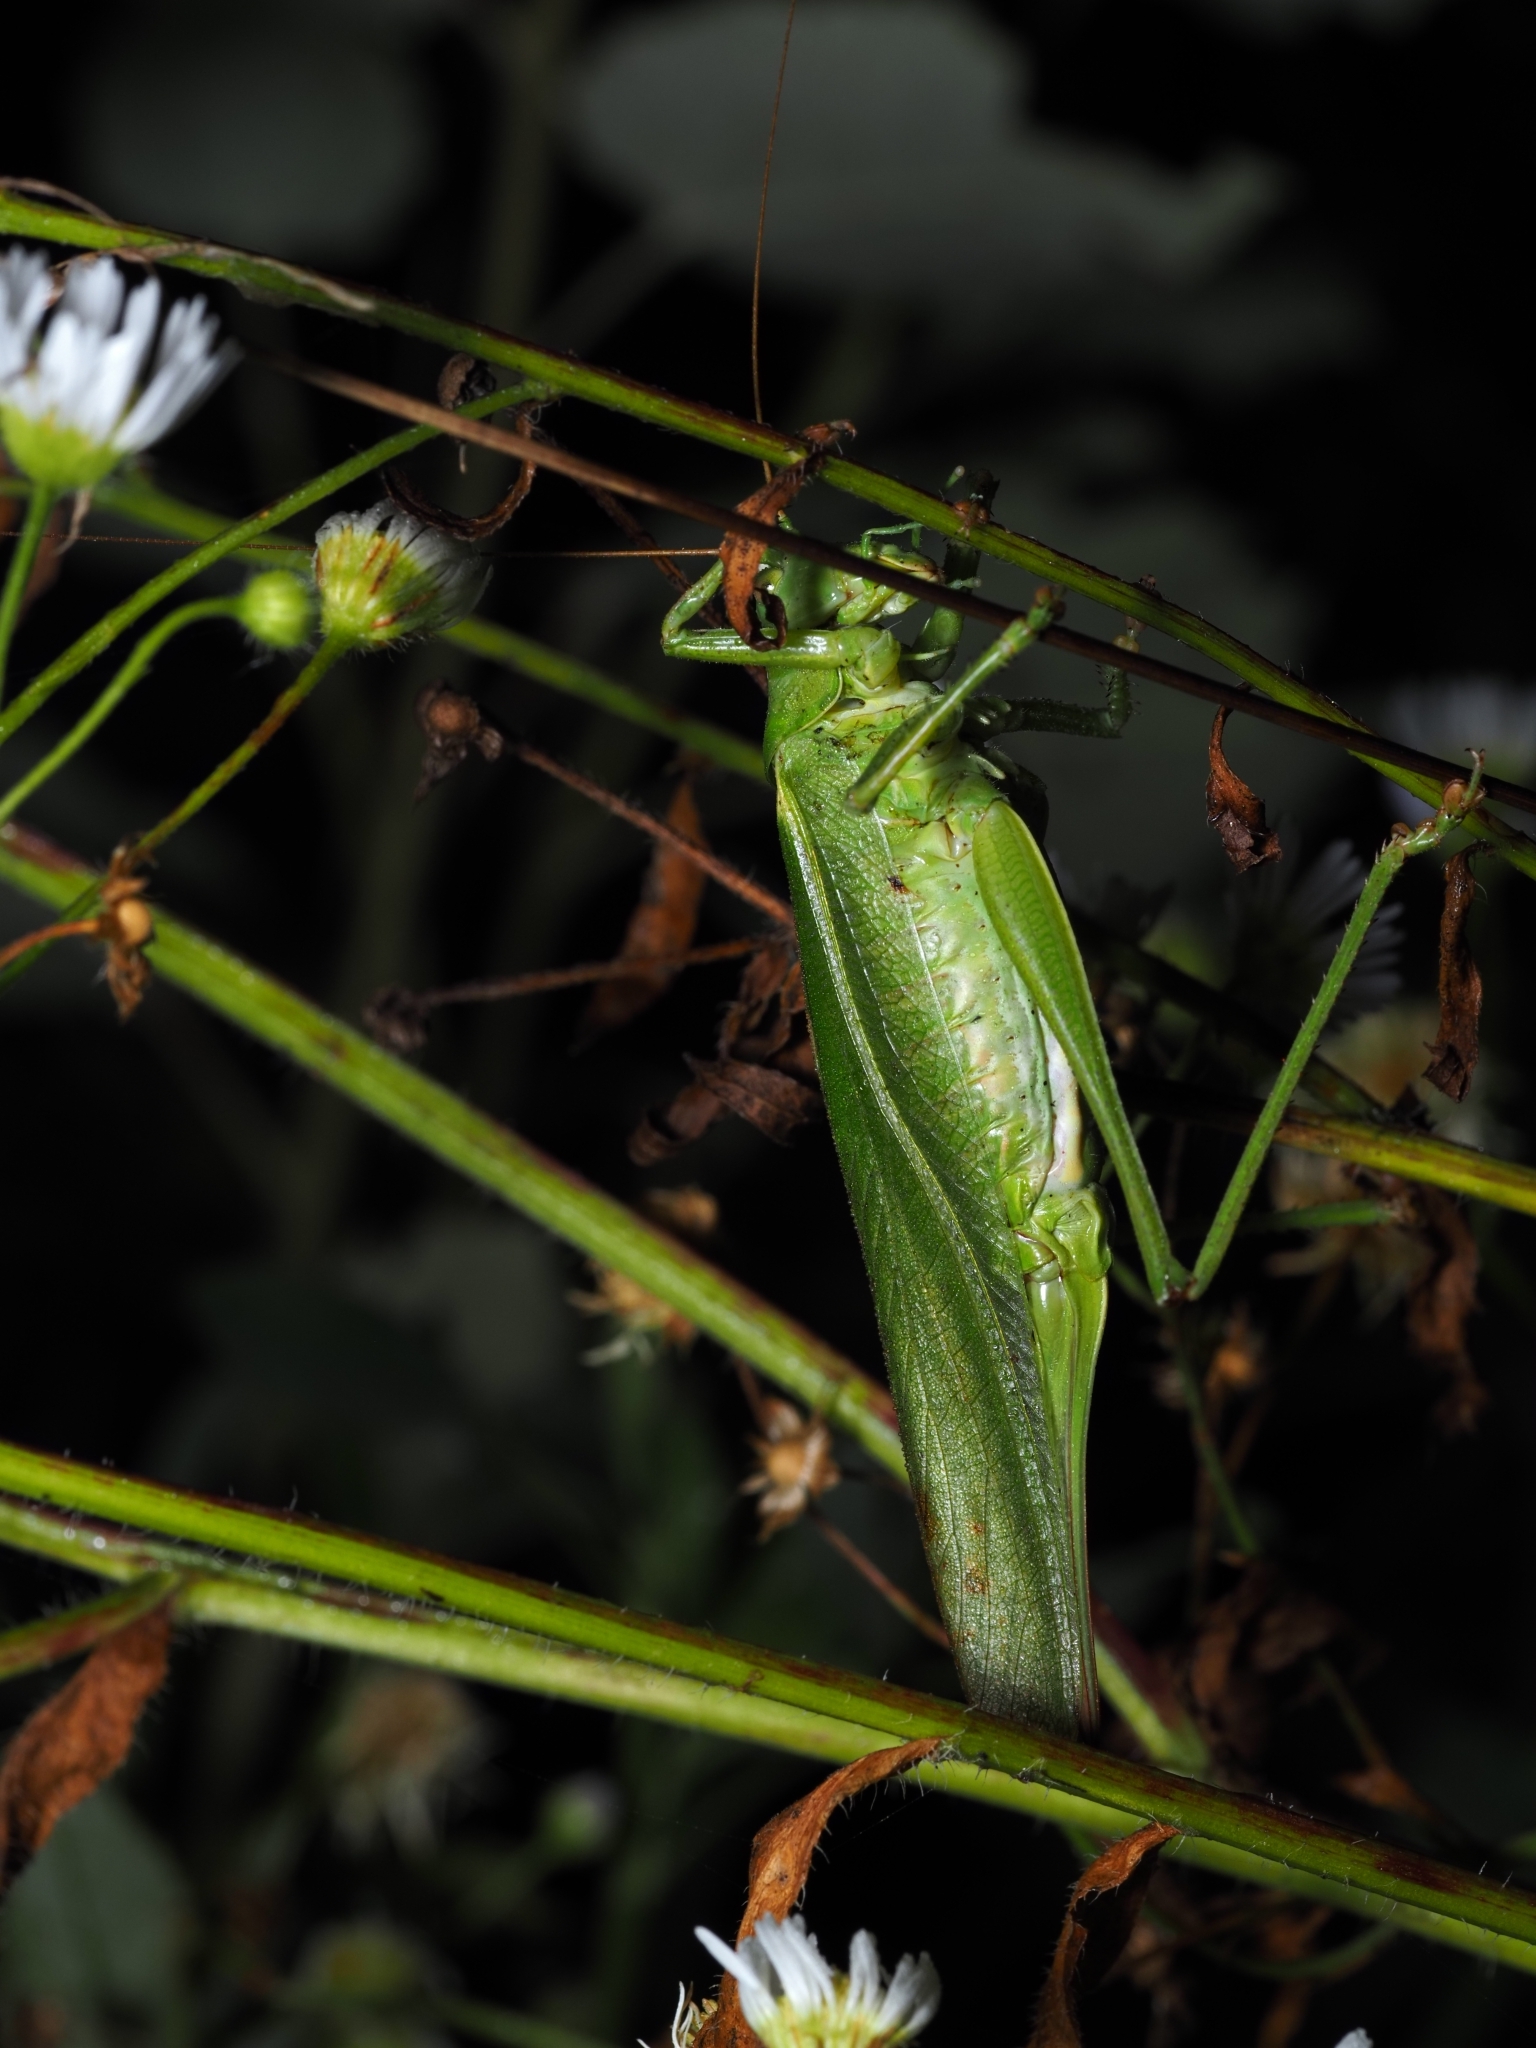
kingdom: Animalia
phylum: Arthropoda
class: Insecta
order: Orthoptera
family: Tettigoniidae
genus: Tettigonia
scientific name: Tettigonia viridissima
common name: Great green bush-cricket
